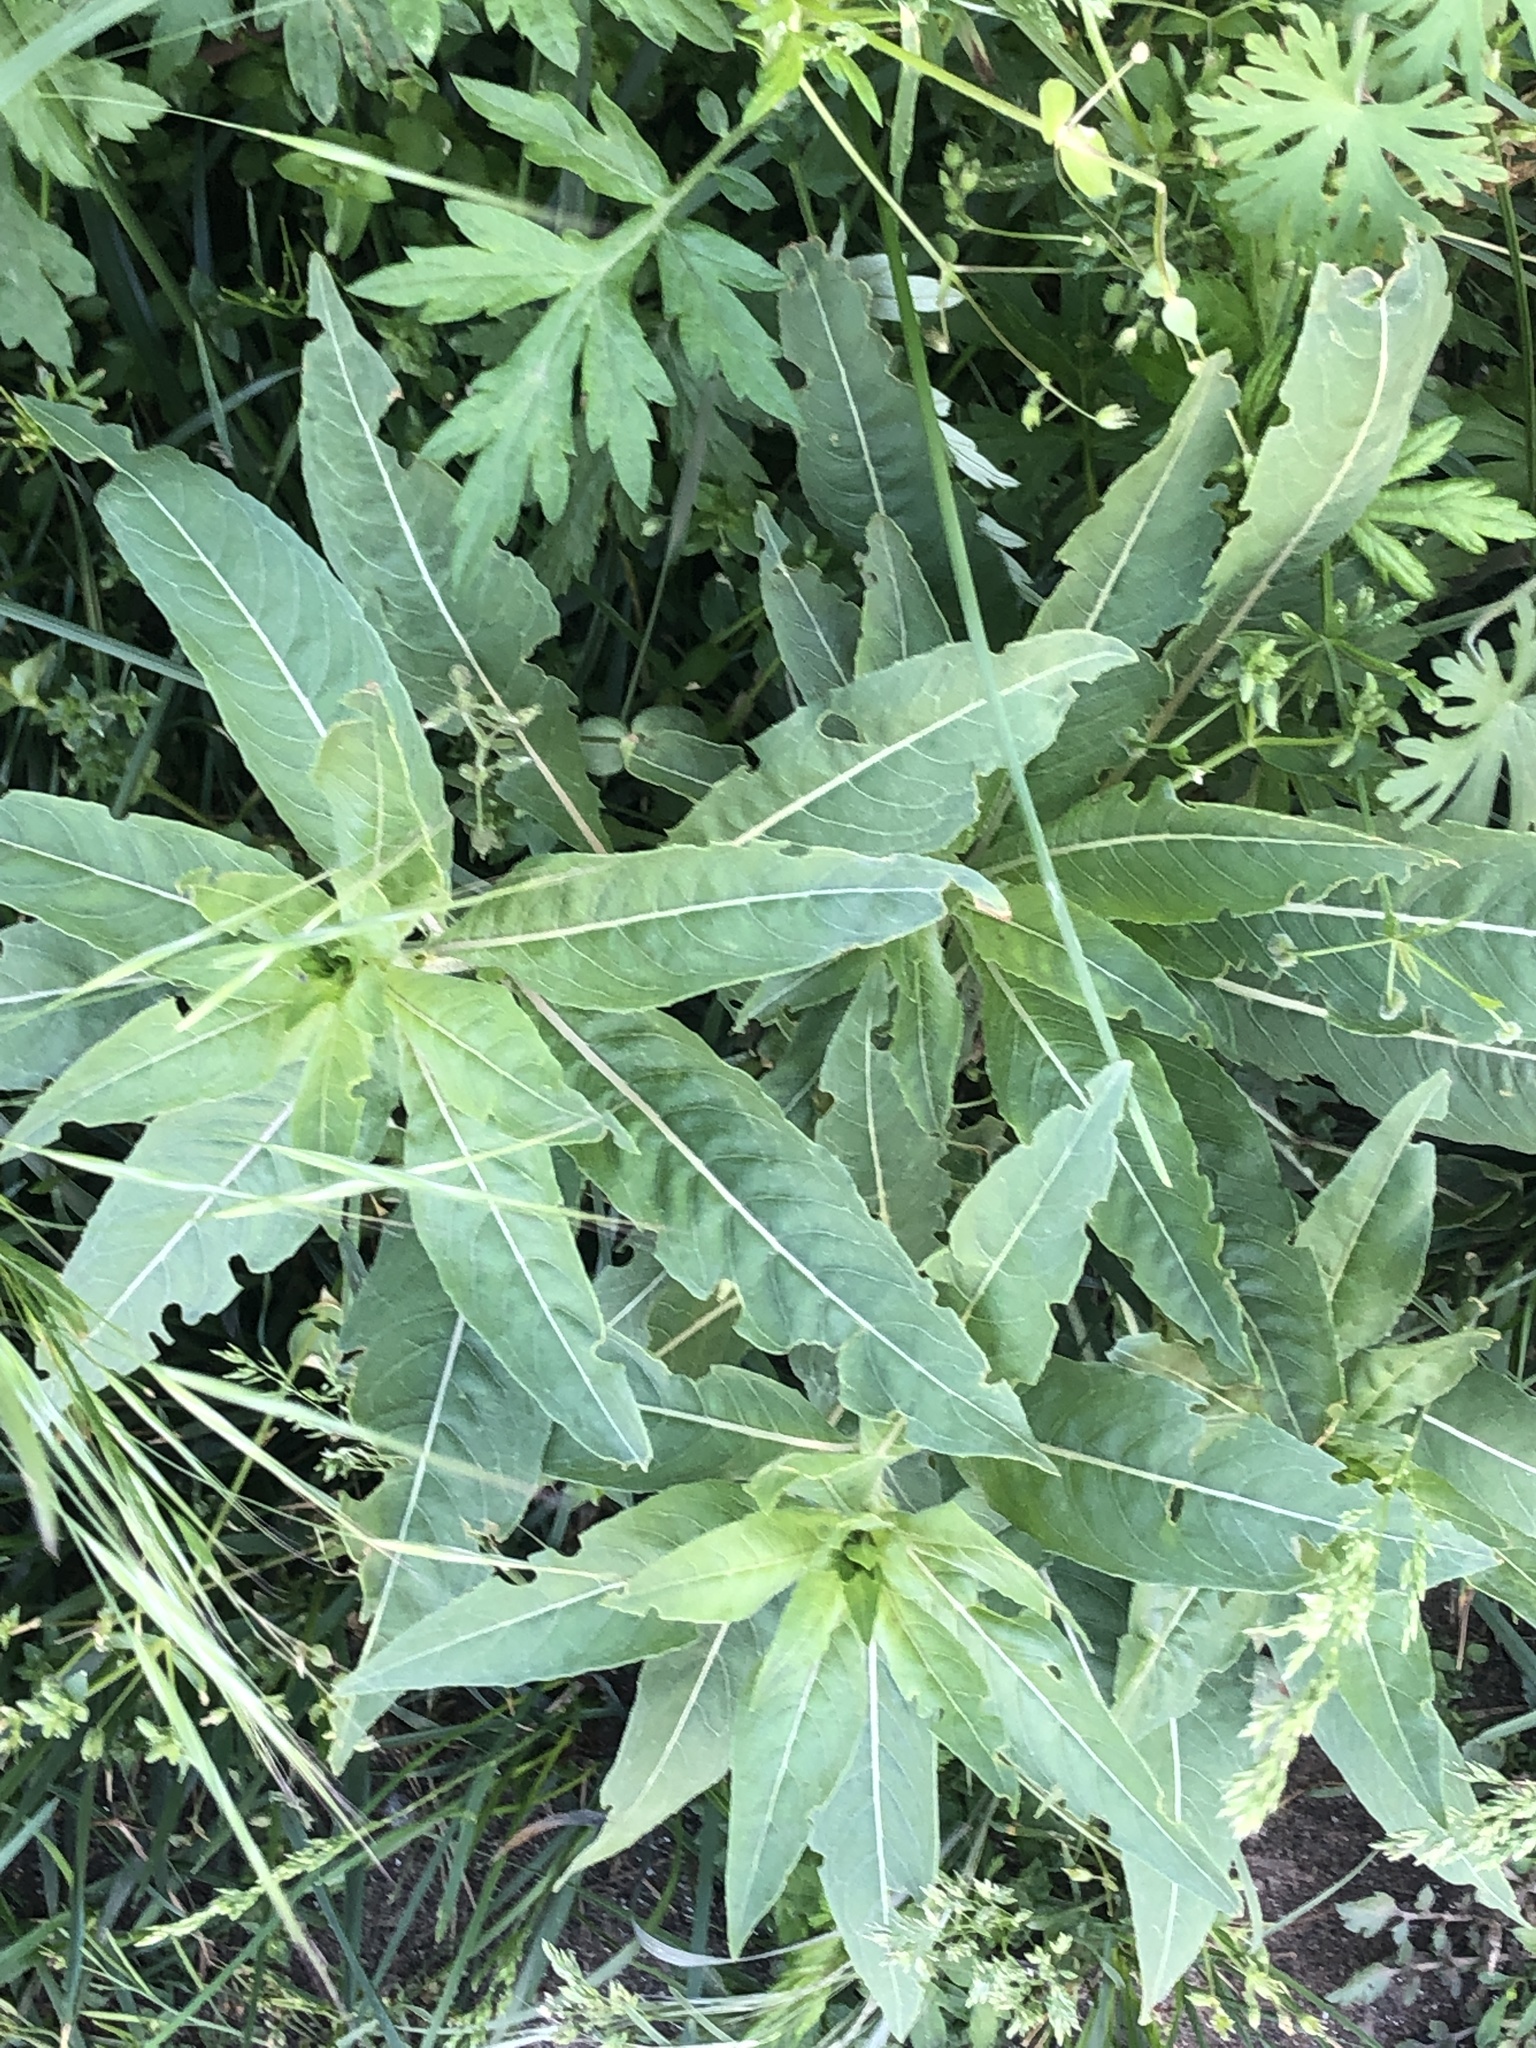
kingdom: Plantae
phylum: Tracheophyta
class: Magnoliopsida
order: Myrtales
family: Onagraceae
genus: Oenothera
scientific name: Oenothera biennis
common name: Common evening-primrose
